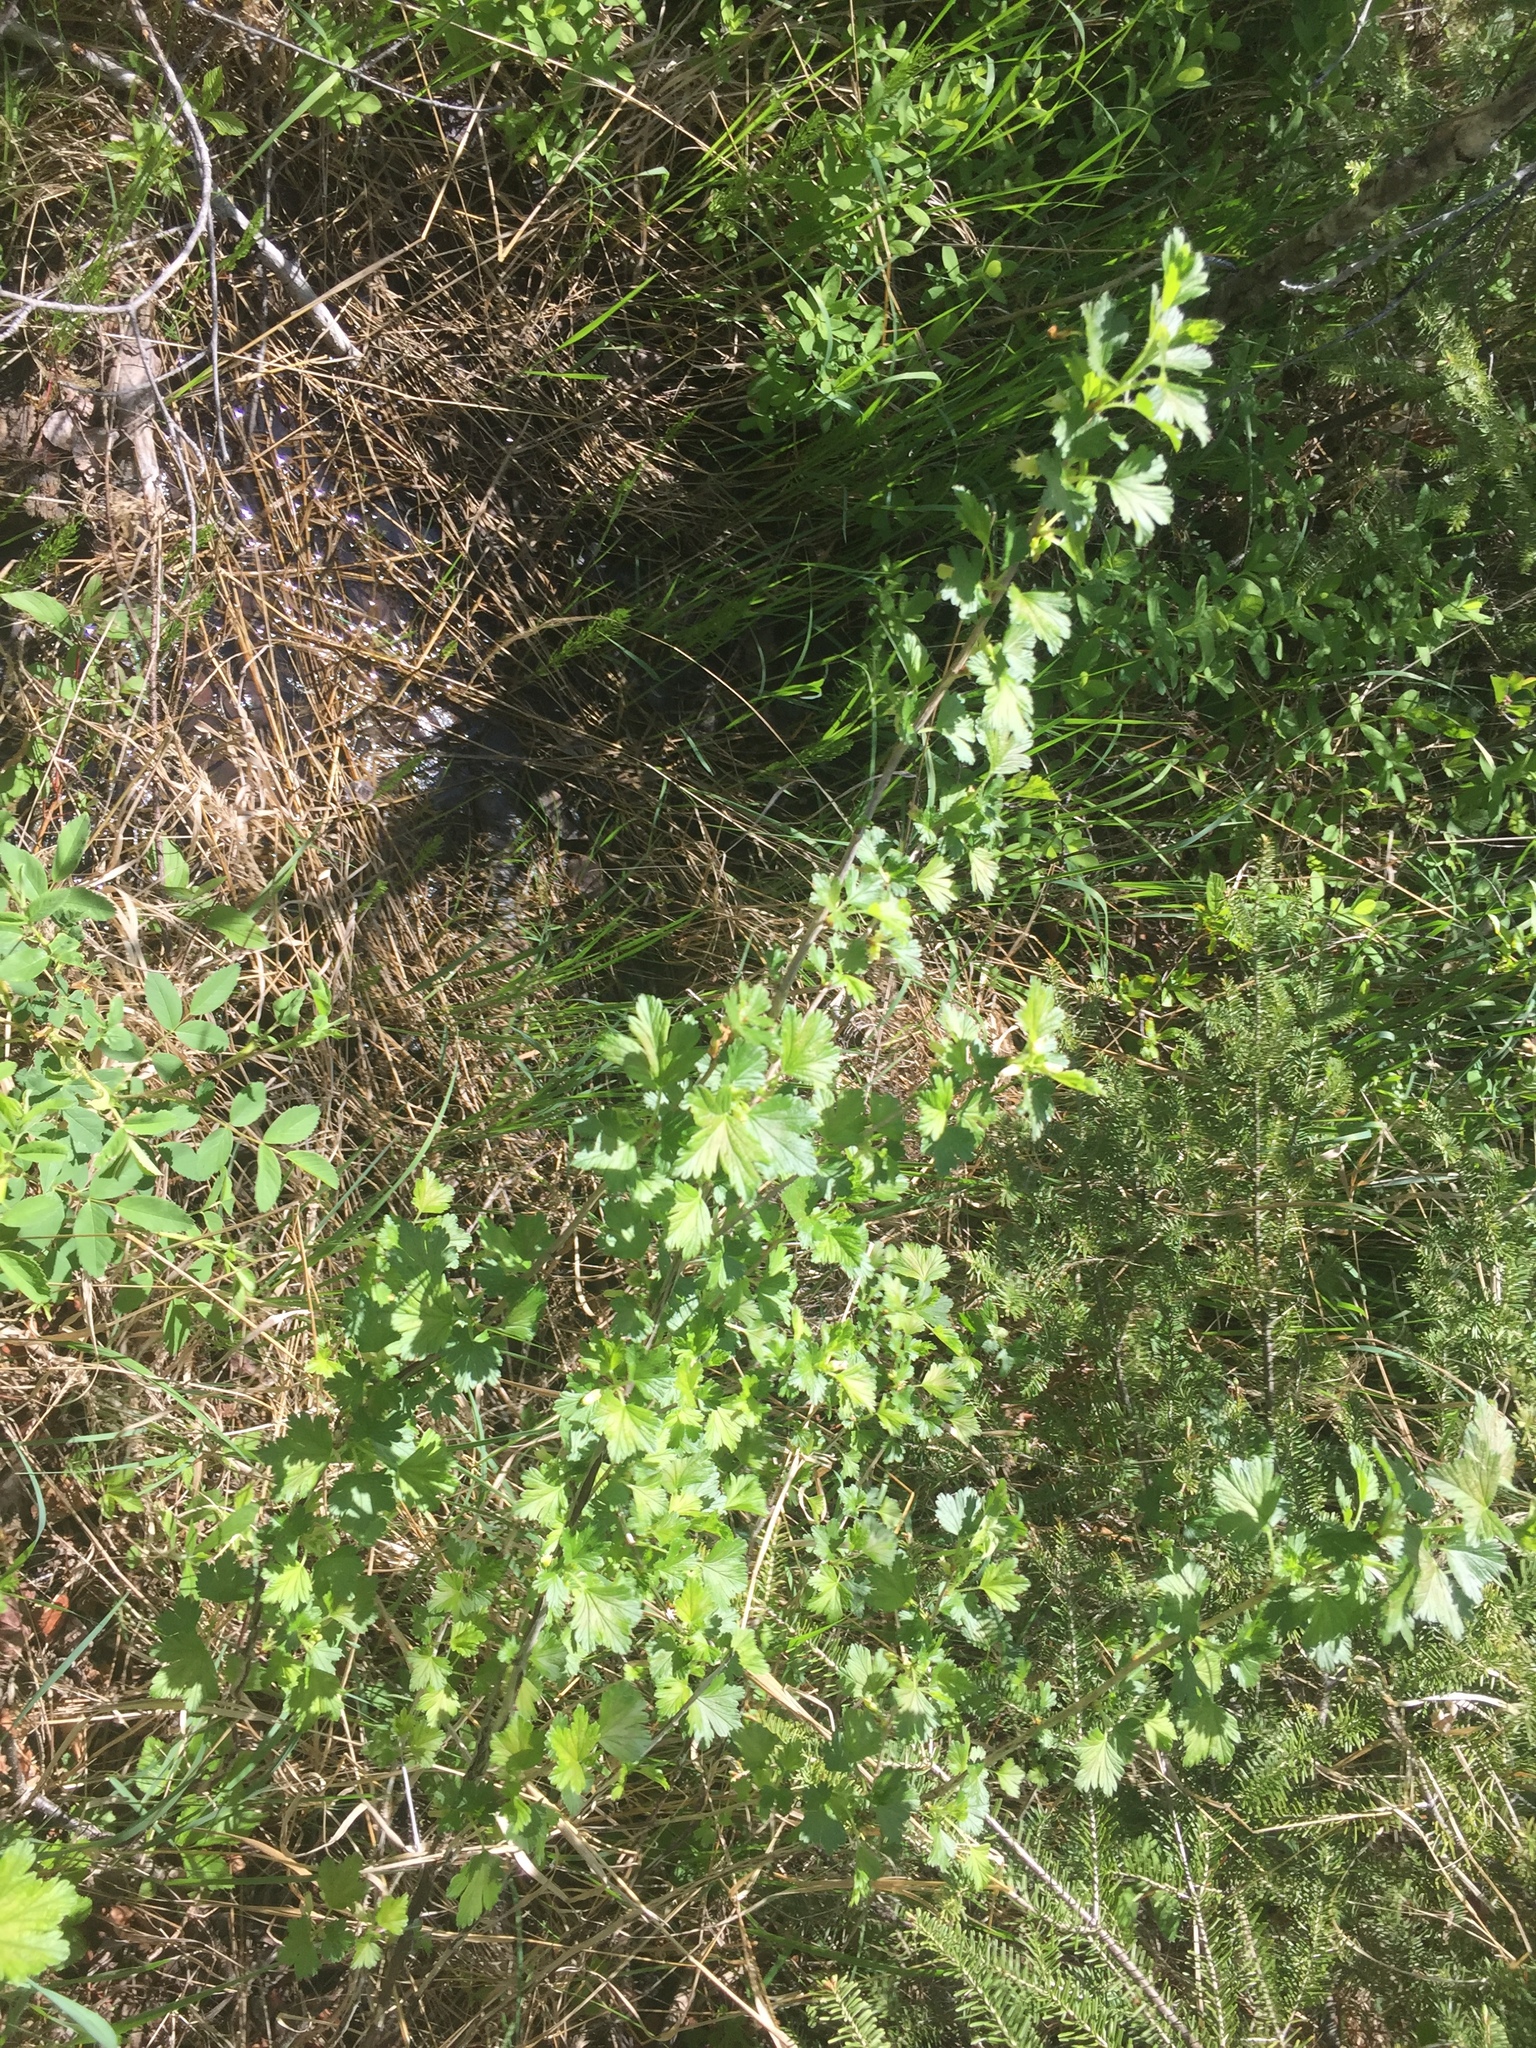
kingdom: Plantae
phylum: Tracheophyta
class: Magnoliopsida
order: Saxifragales
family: Grossulariaceae
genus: Ribes
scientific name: Ribes hirtellum
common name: Hairy gooseberry
